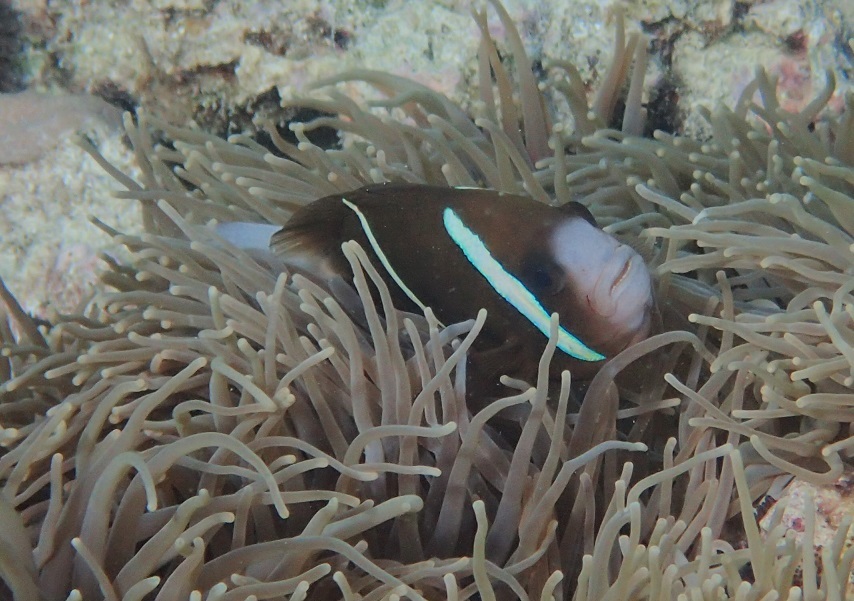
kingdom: Animalia
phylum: Chordata
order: Perciformes
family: Pomacentridae
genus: Amphiprion
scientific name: Amphiprion akindynos
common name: Barrier reef anemonefish
